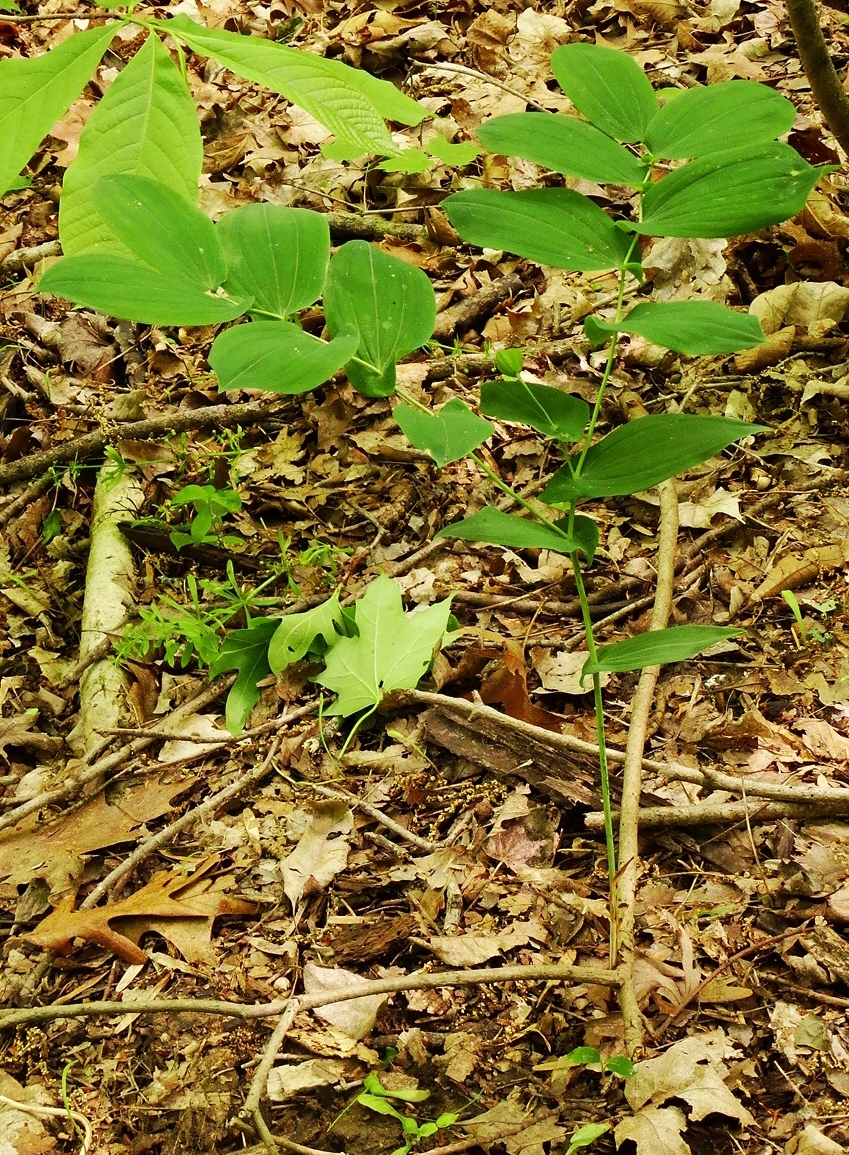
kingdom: Plantae
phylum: Tracheophyta
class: Liliopsida
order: Liliales
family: Colchicaceae
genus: Uvularia
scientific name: Uvularia grandiflora
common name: Bellwort
